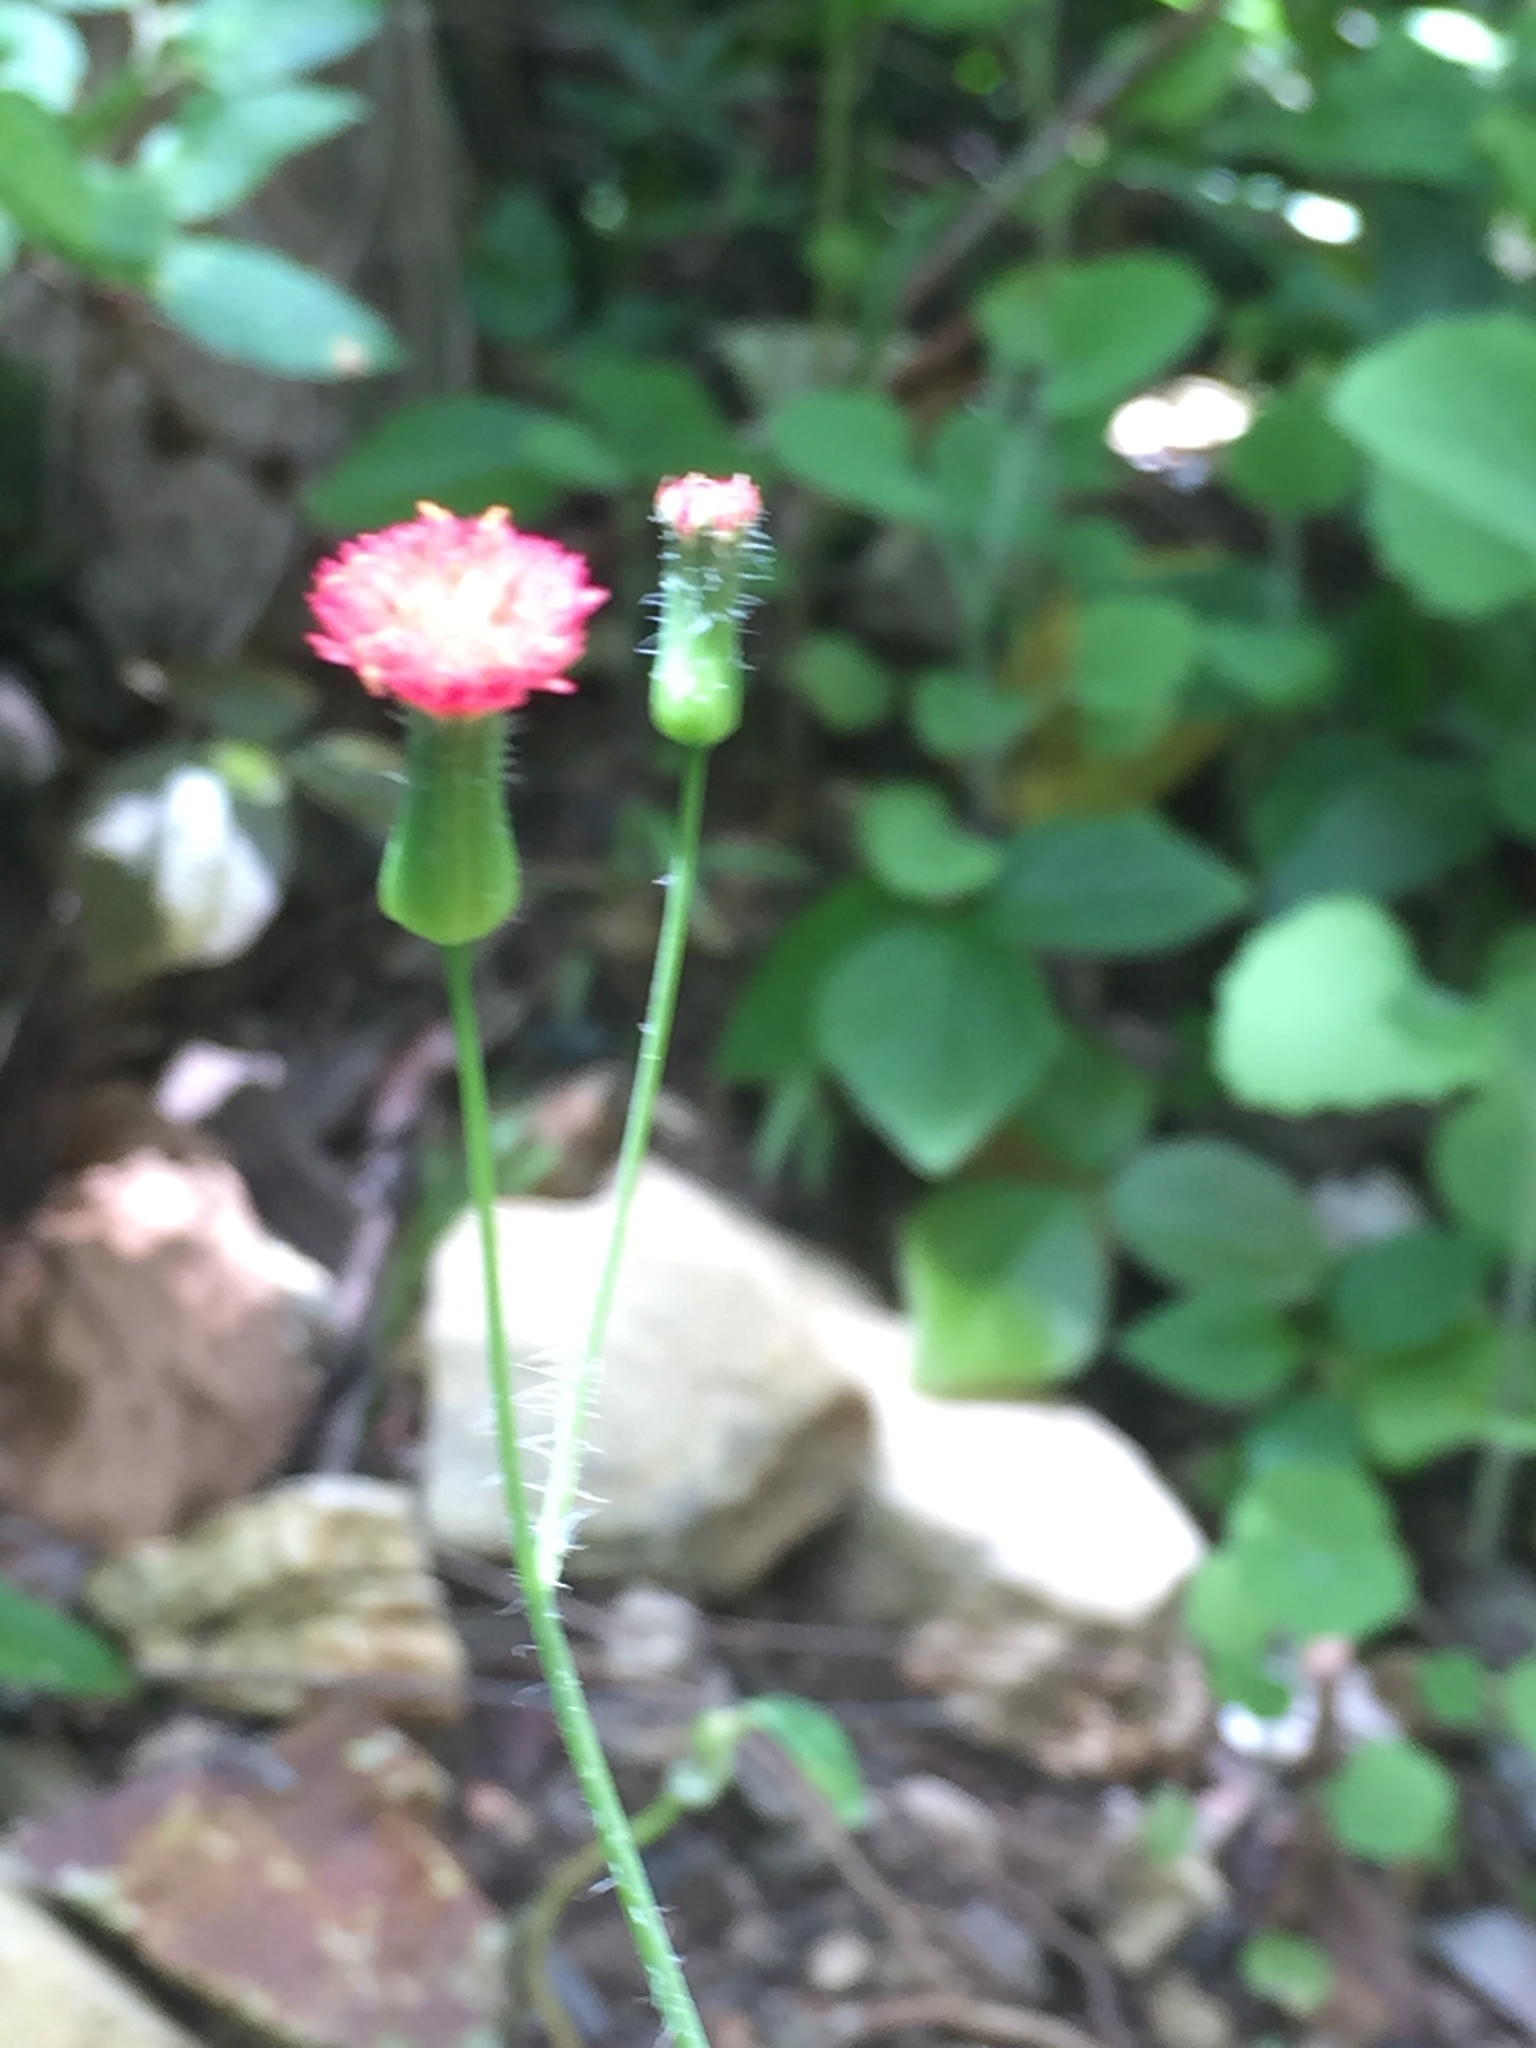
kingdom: Plantae
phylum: Tracheophyta
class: Magnoliopsida
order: Asterales
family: Asteraceae
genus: Emilia
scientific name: Emilia fosbergii
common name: Florida tasselflower
